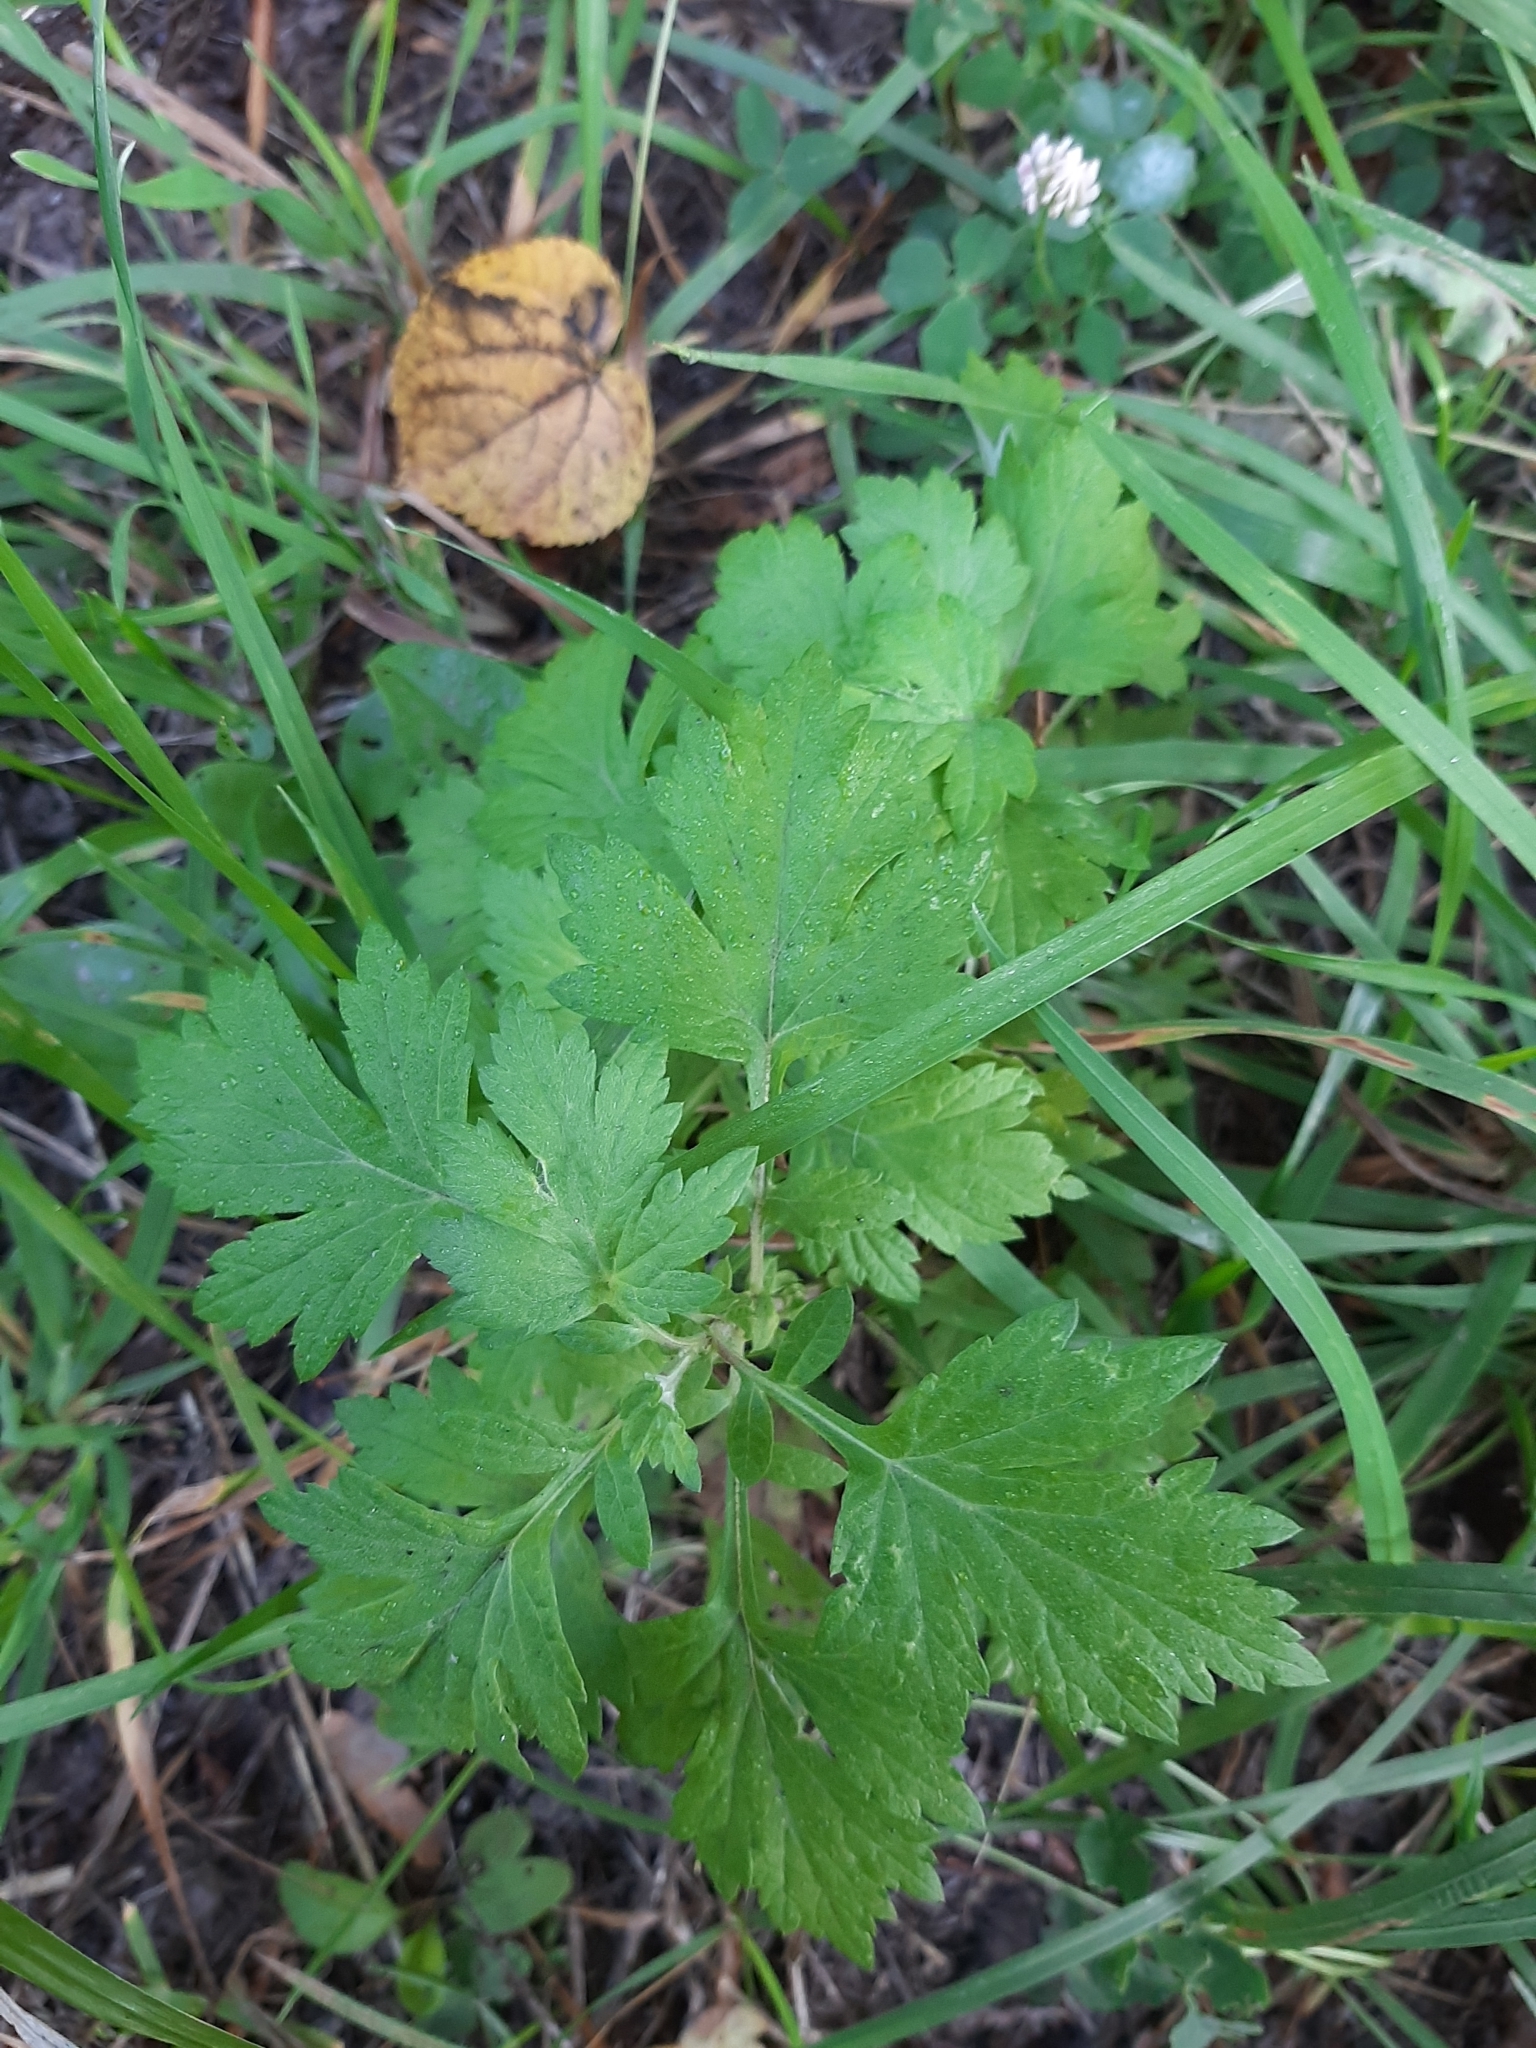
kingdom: Plantae
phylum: Tracheophyta
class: Magnoliopsida
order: Asterales
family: Asteraceae
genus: Artemisia
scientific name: Artemisia vulgaris
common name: Mugwort
